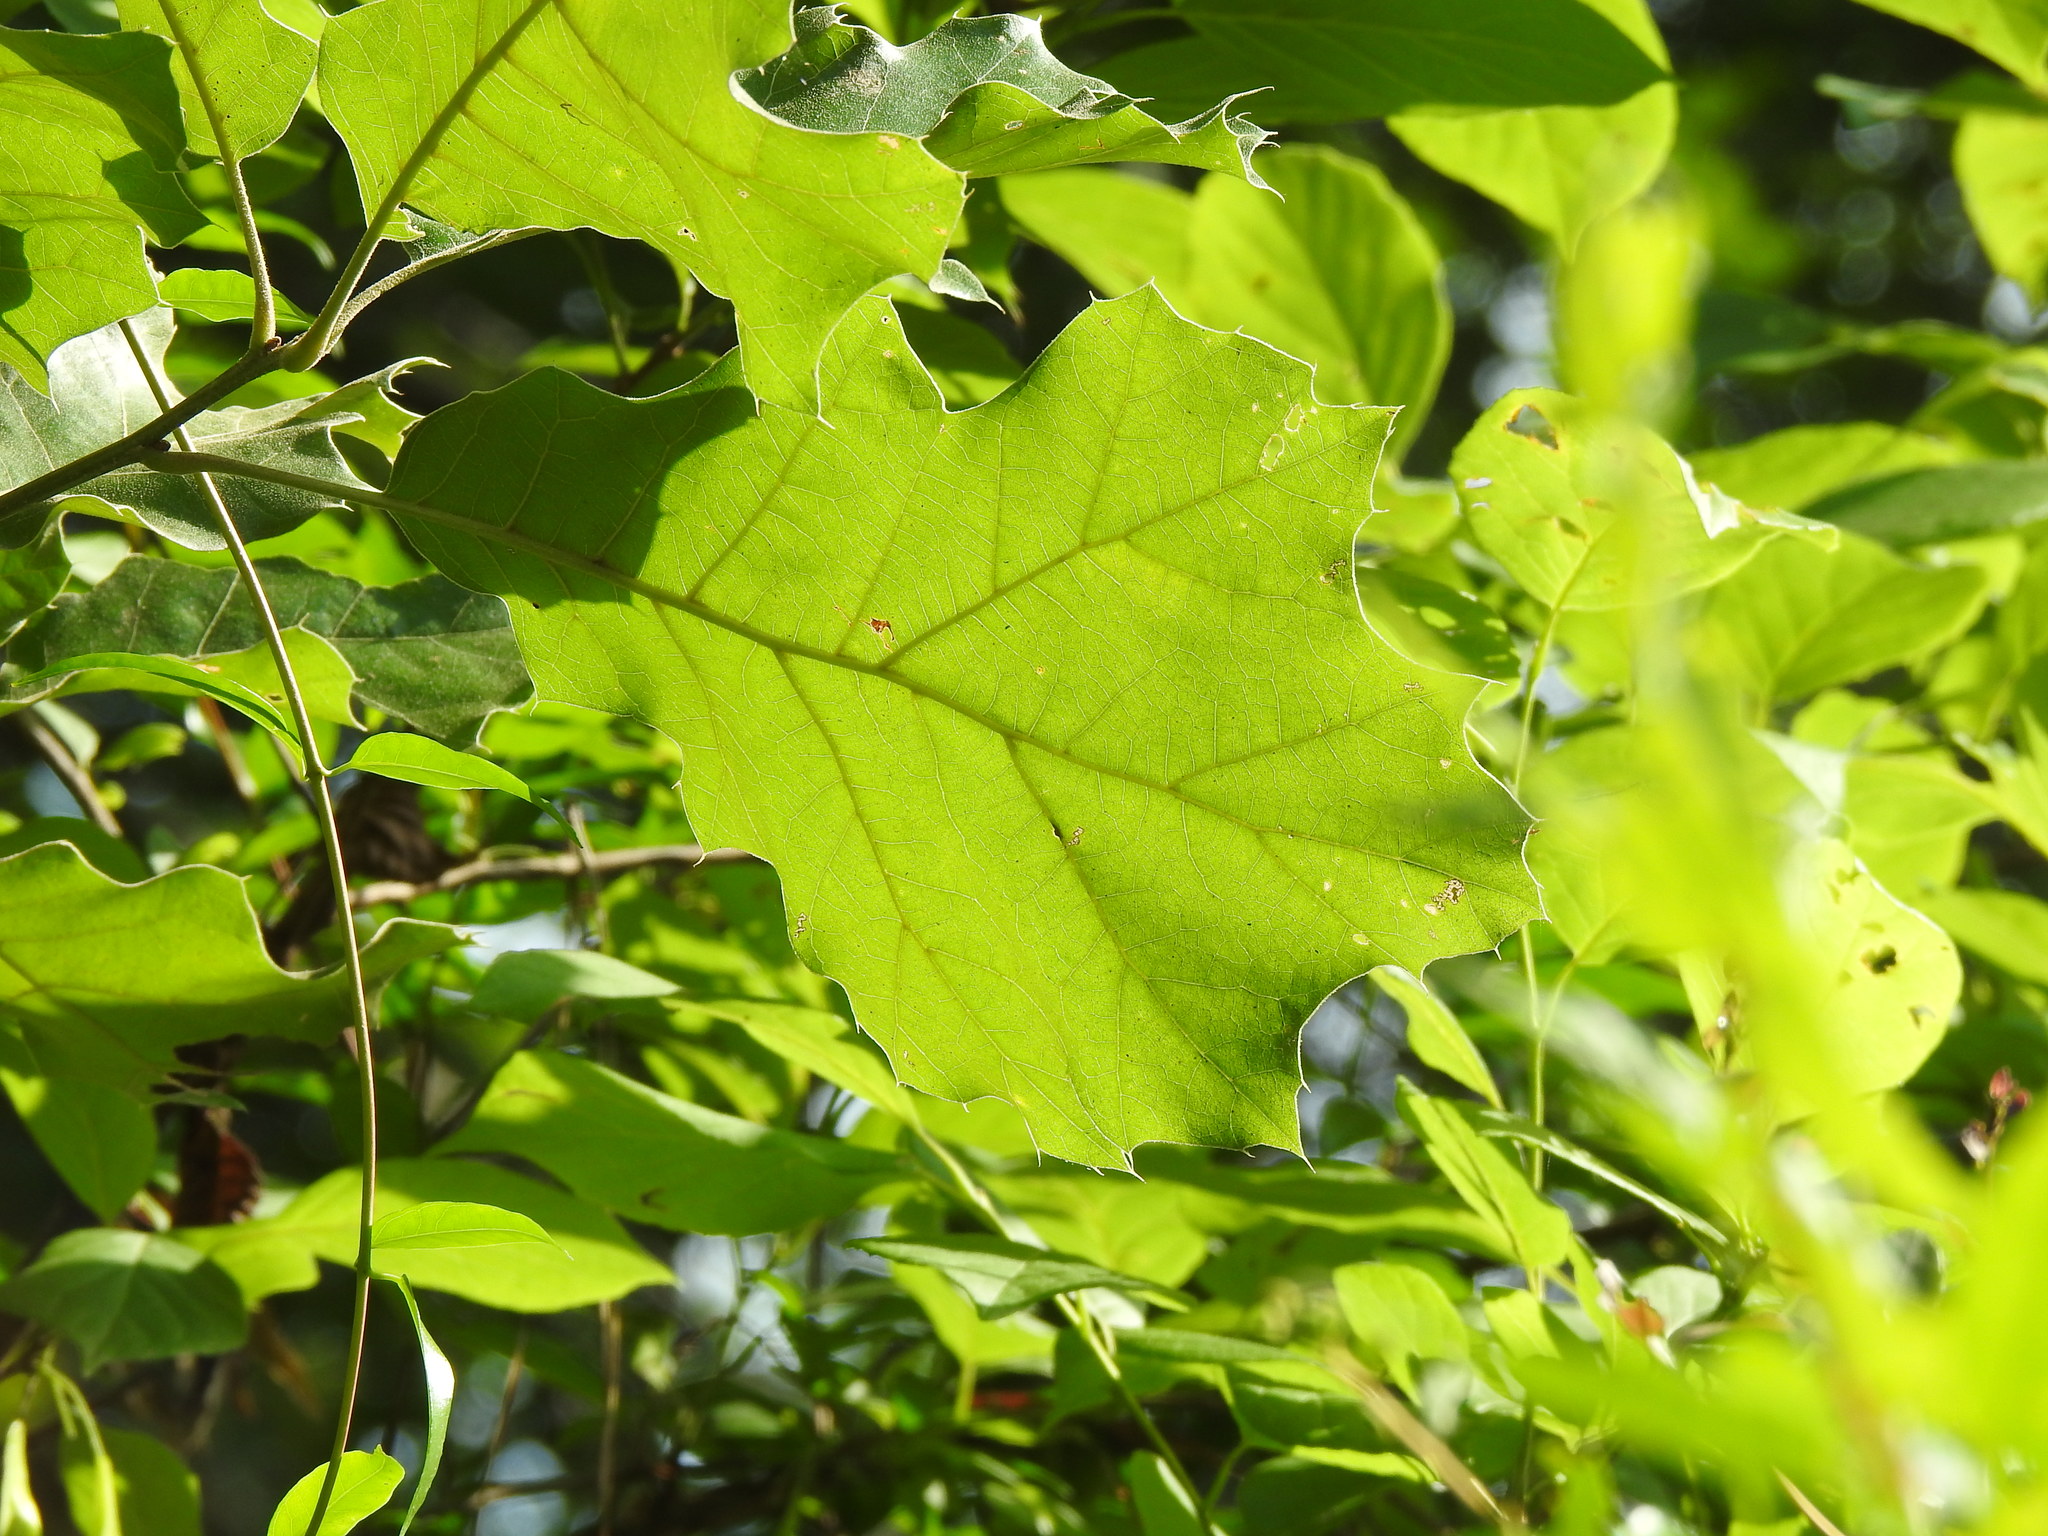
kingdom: Plantae
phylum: Tracheophyta
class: Magnoliopsida
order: Fagales
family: Fagaceae
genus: Quercus
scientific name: Quercus velutina
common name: Black oak
